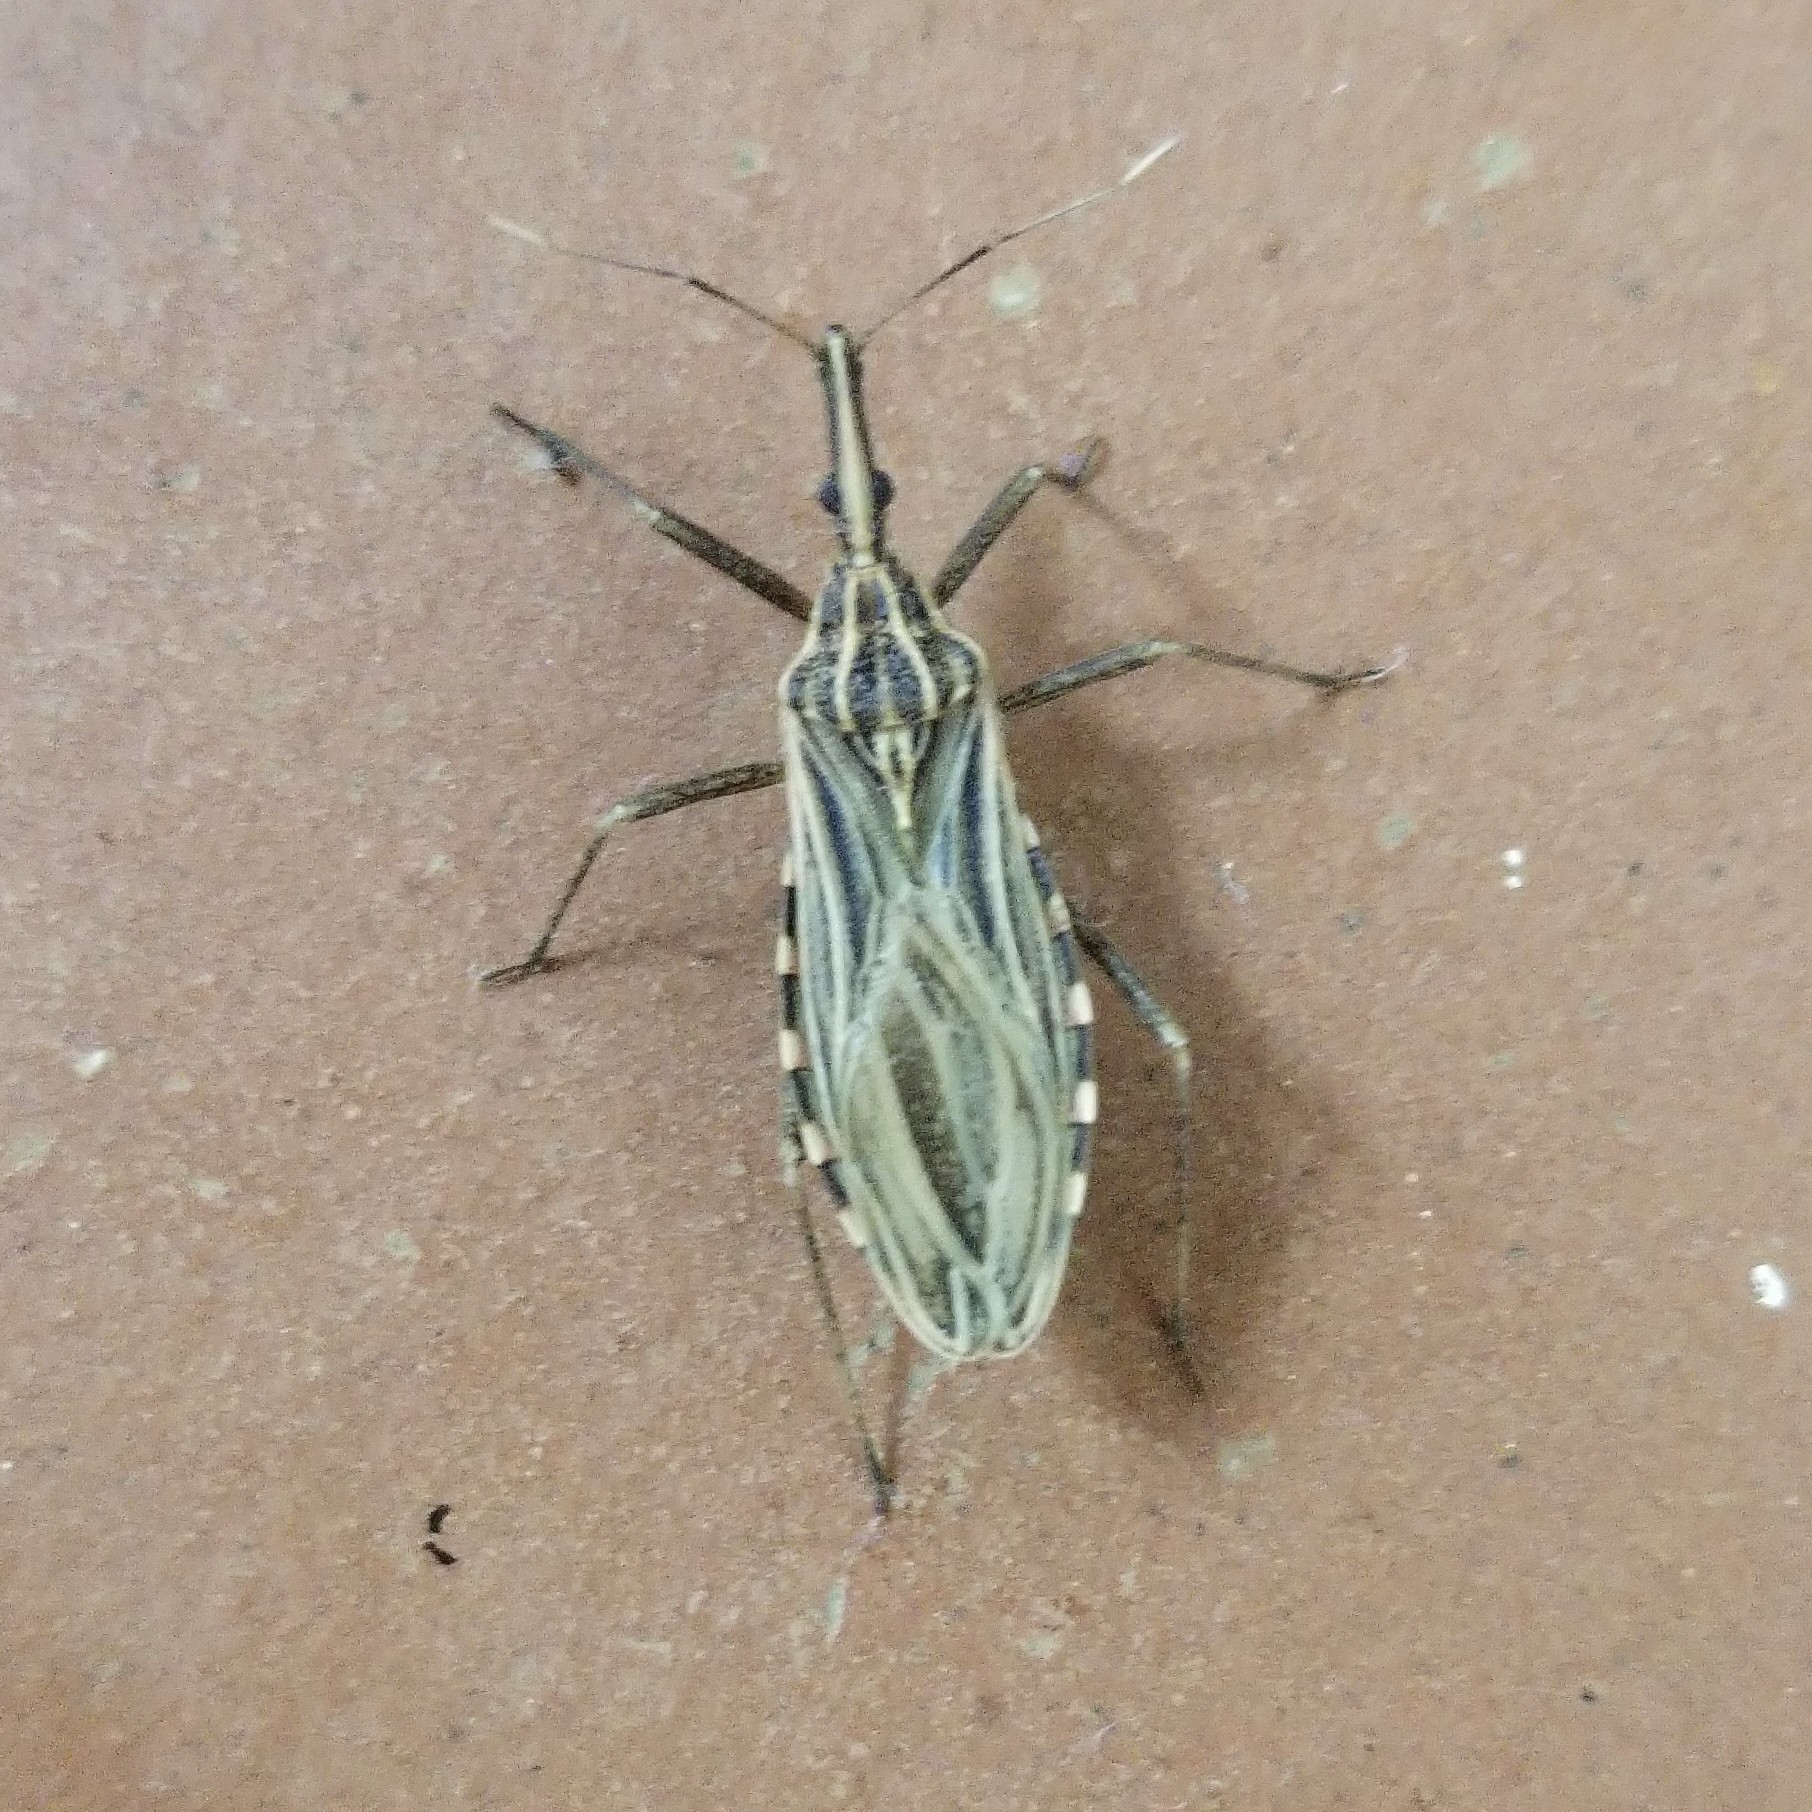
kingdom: Animalia
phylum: Arthropoda
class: Insecta
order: Hemiptera
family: Reduviidae
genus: Rhodnius
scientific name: Rhodnius pallescens
